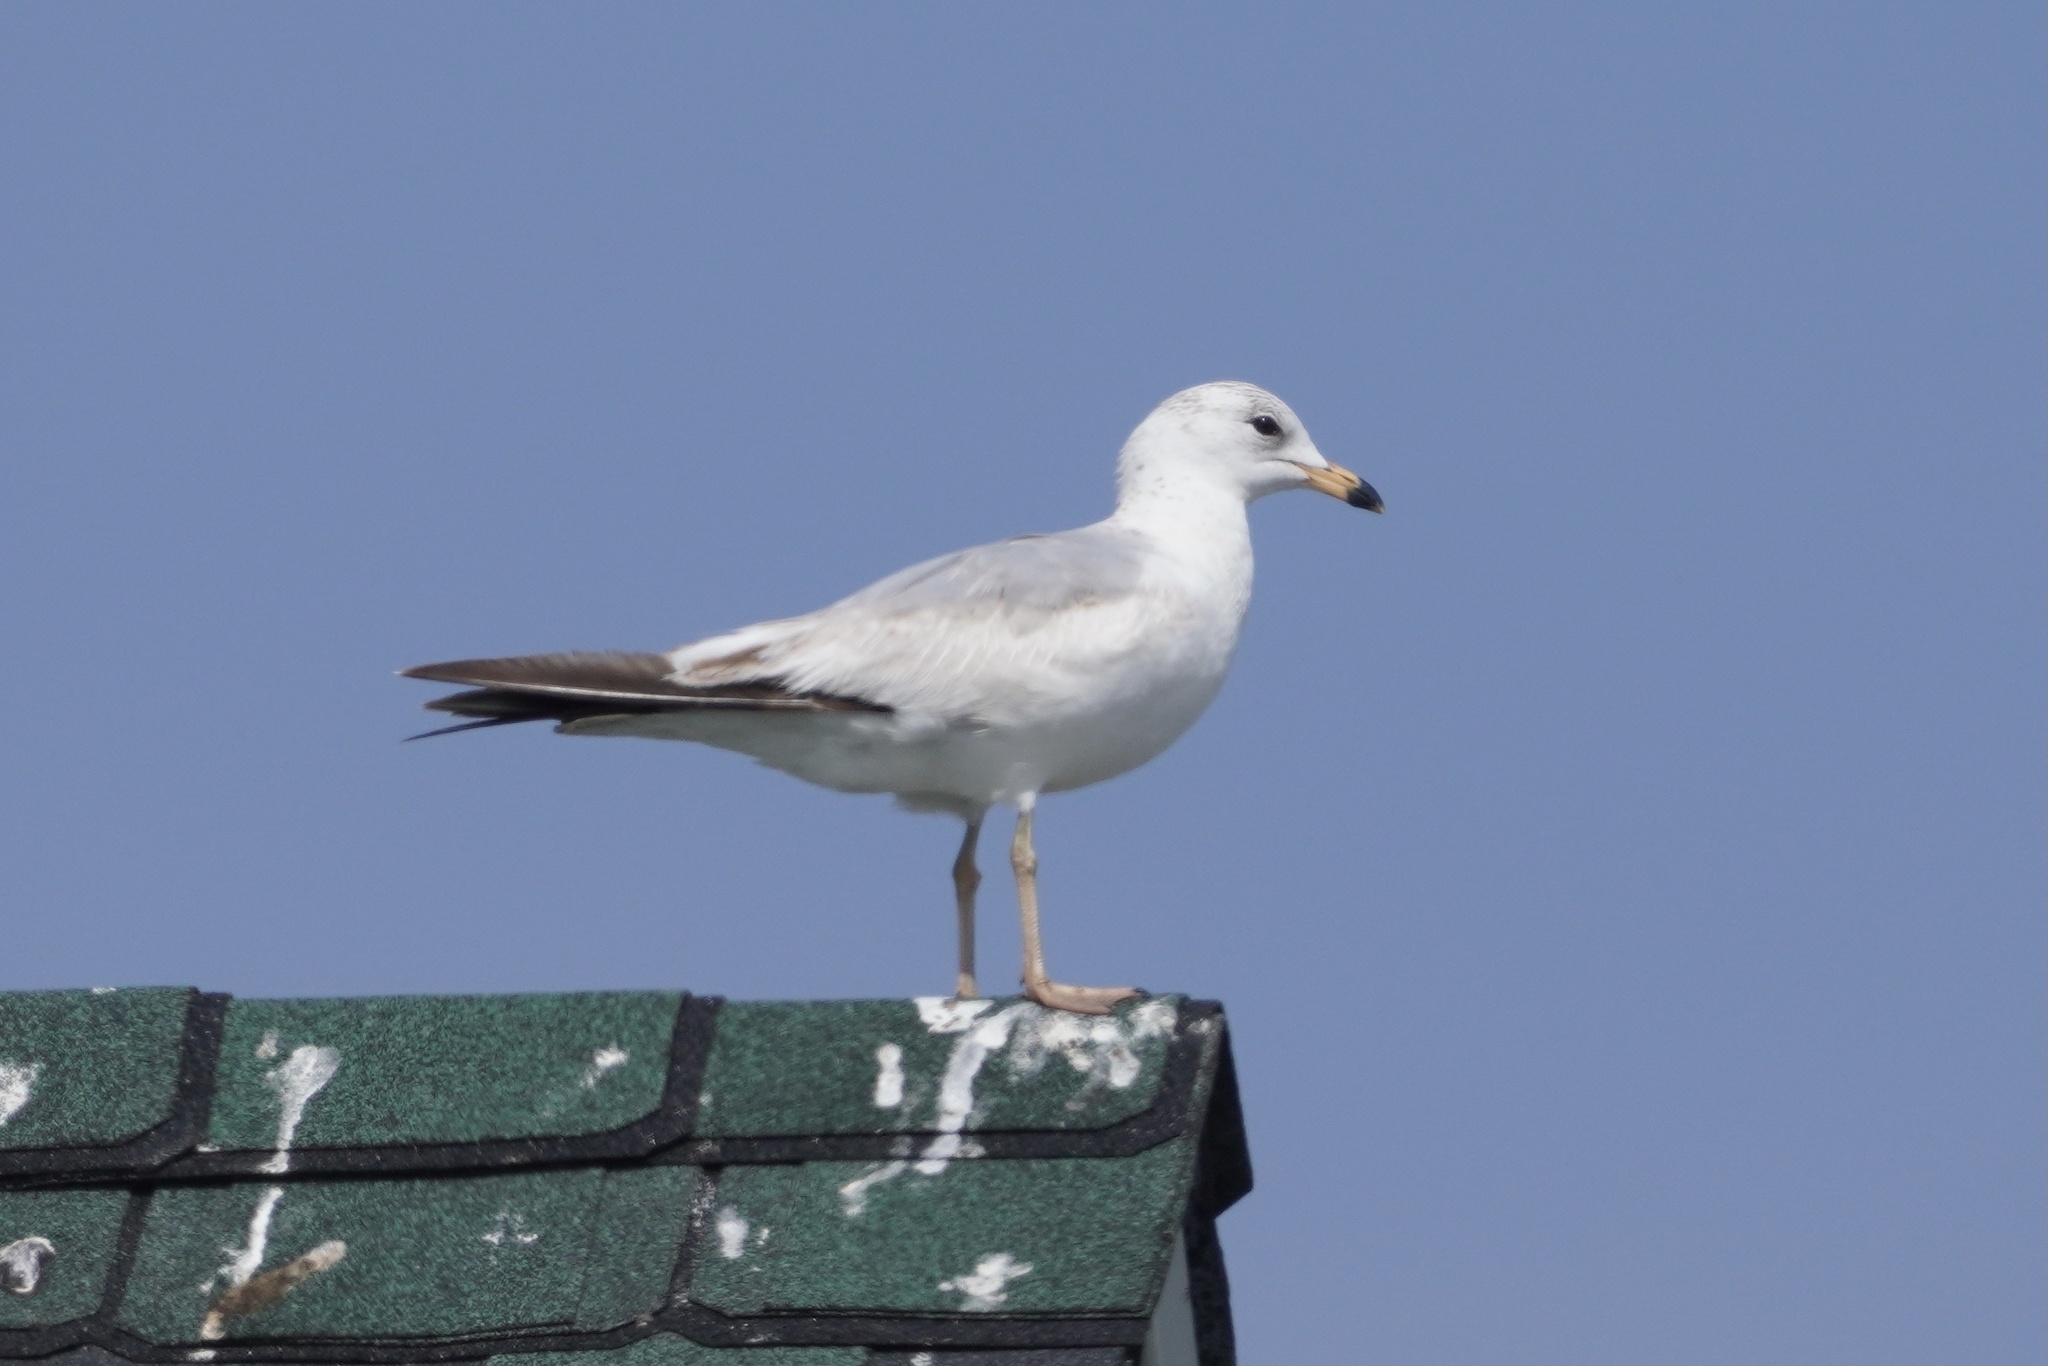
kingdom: Animalia
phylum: Chordata
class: Aves
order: Charadriiformes
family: Laridae
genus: Larus
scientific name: Larus delawarensis
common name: Ring-billed gull
